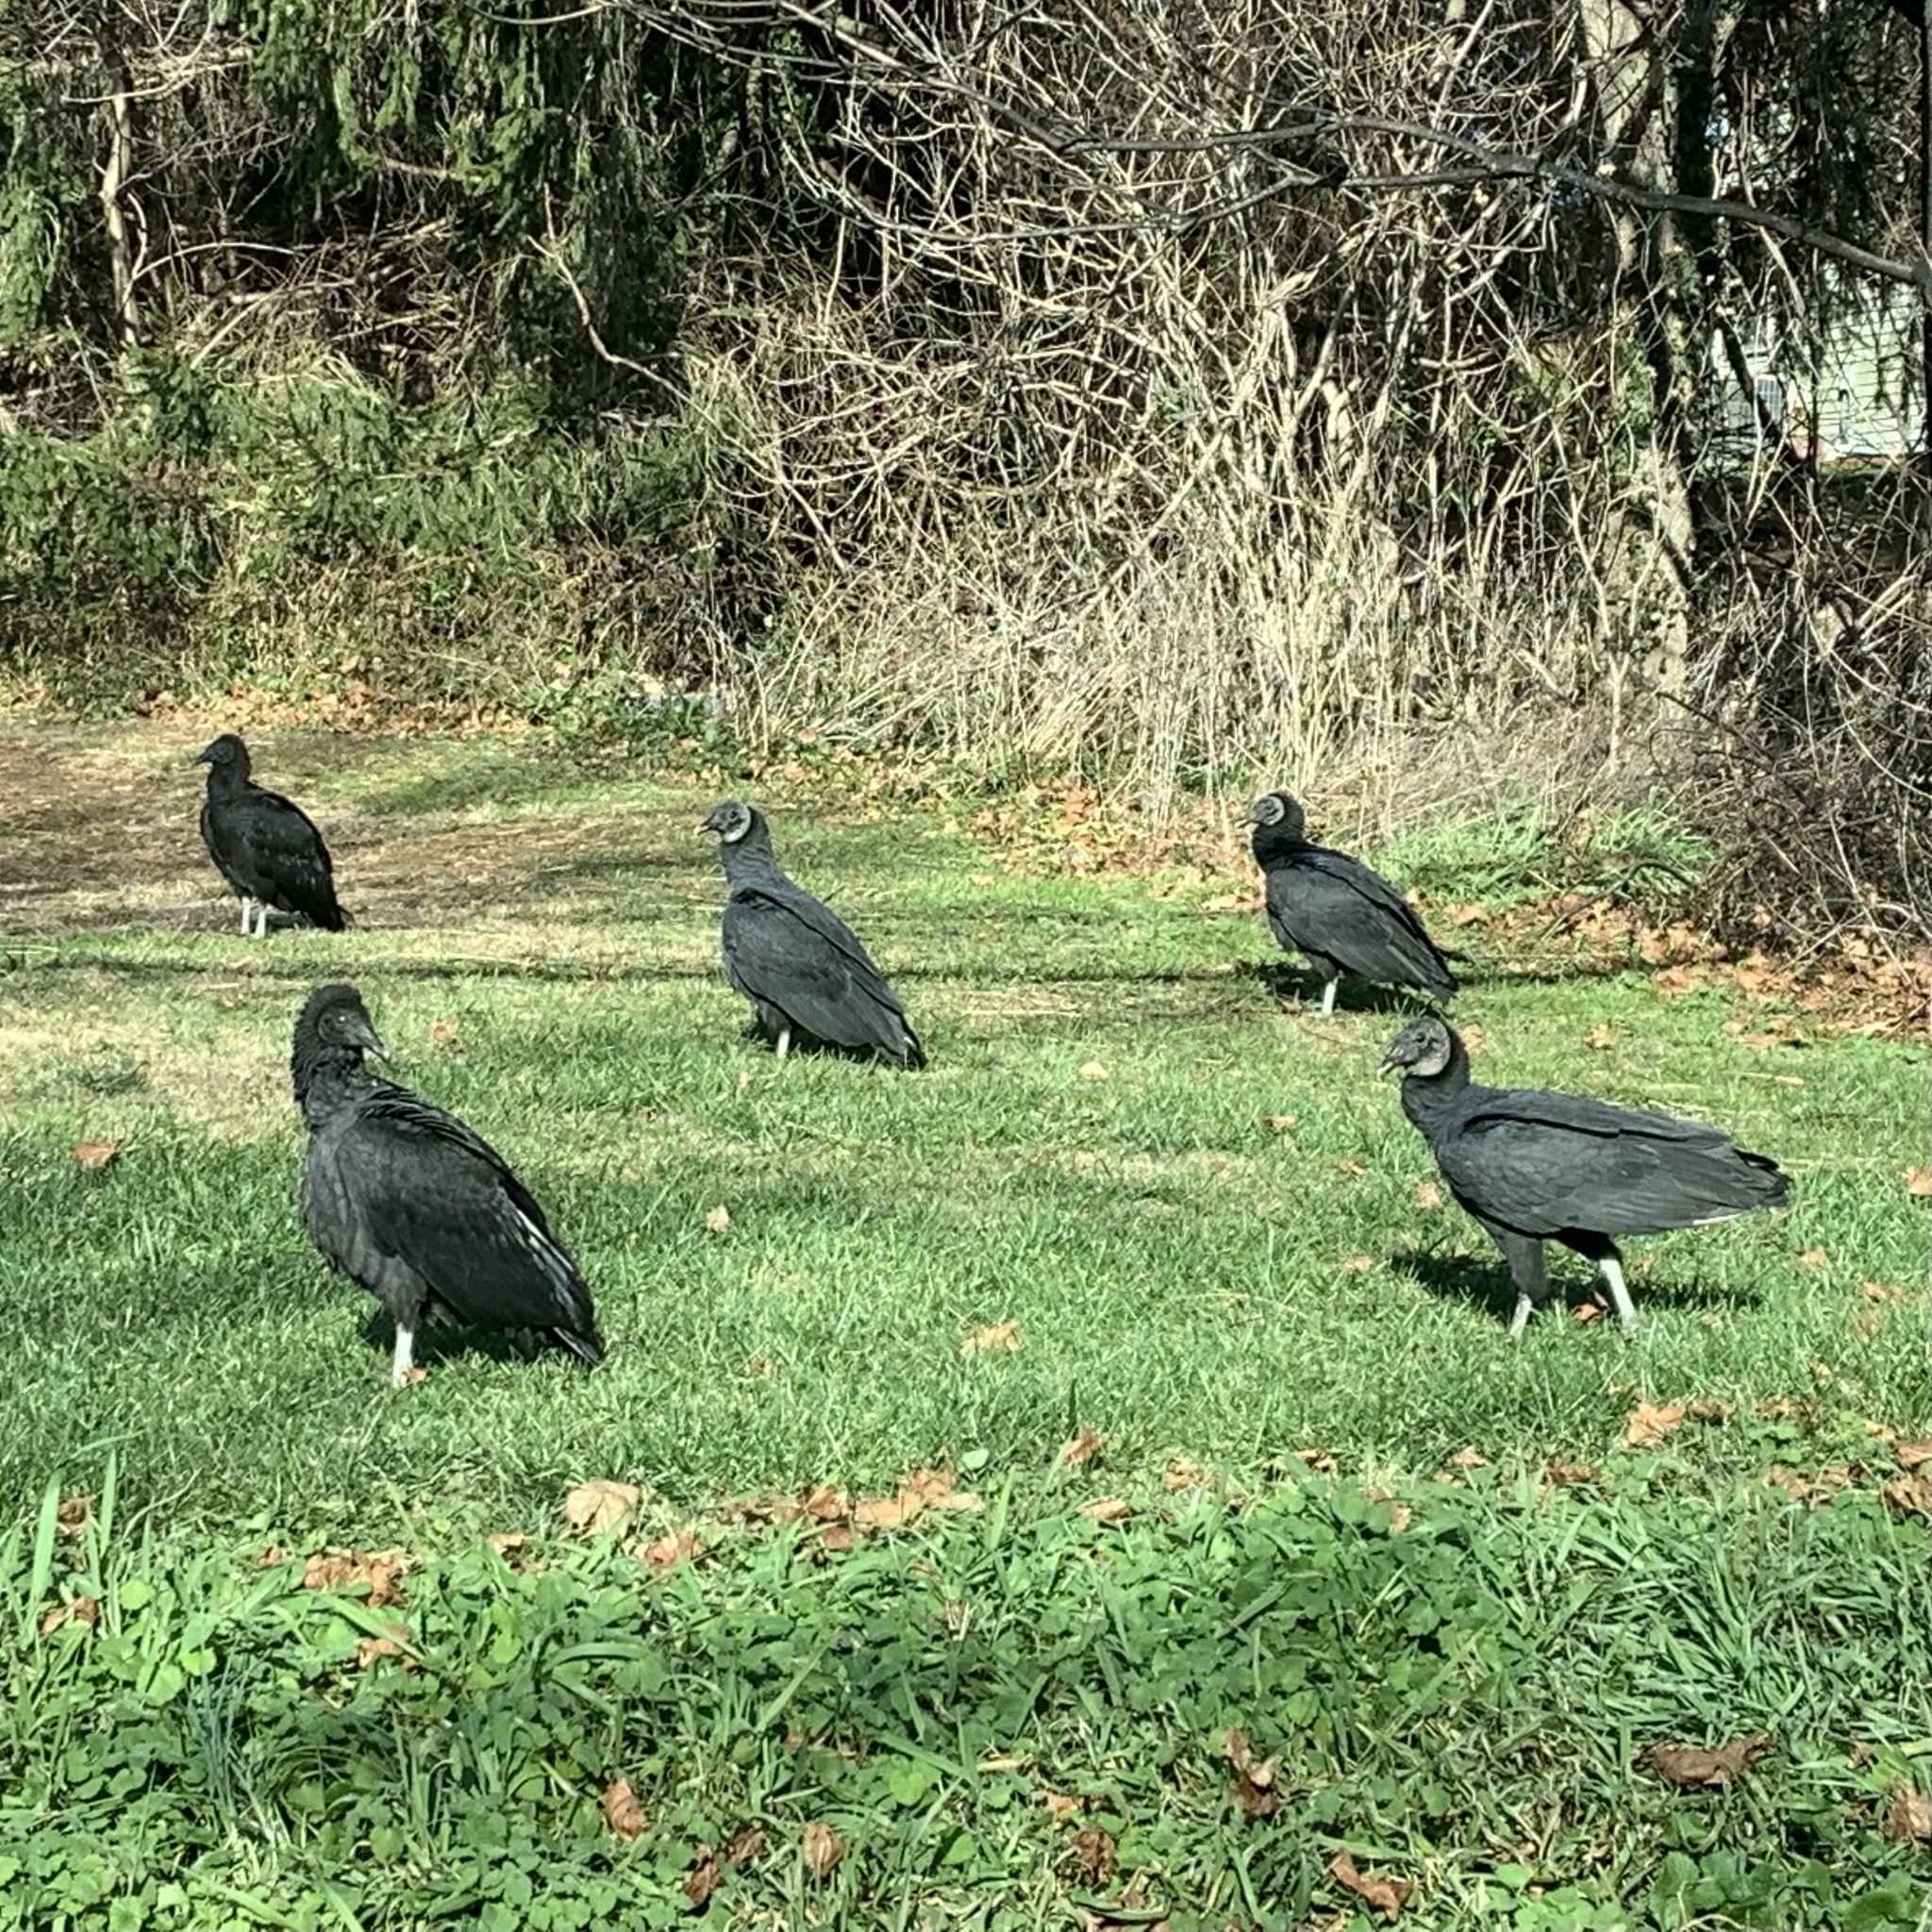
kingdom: Animalia
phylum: Chordata
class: Aves
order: Accipitriformes
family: Cathartidae
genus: Coragyps
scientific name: Coragyps atratus
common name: Black vulture
